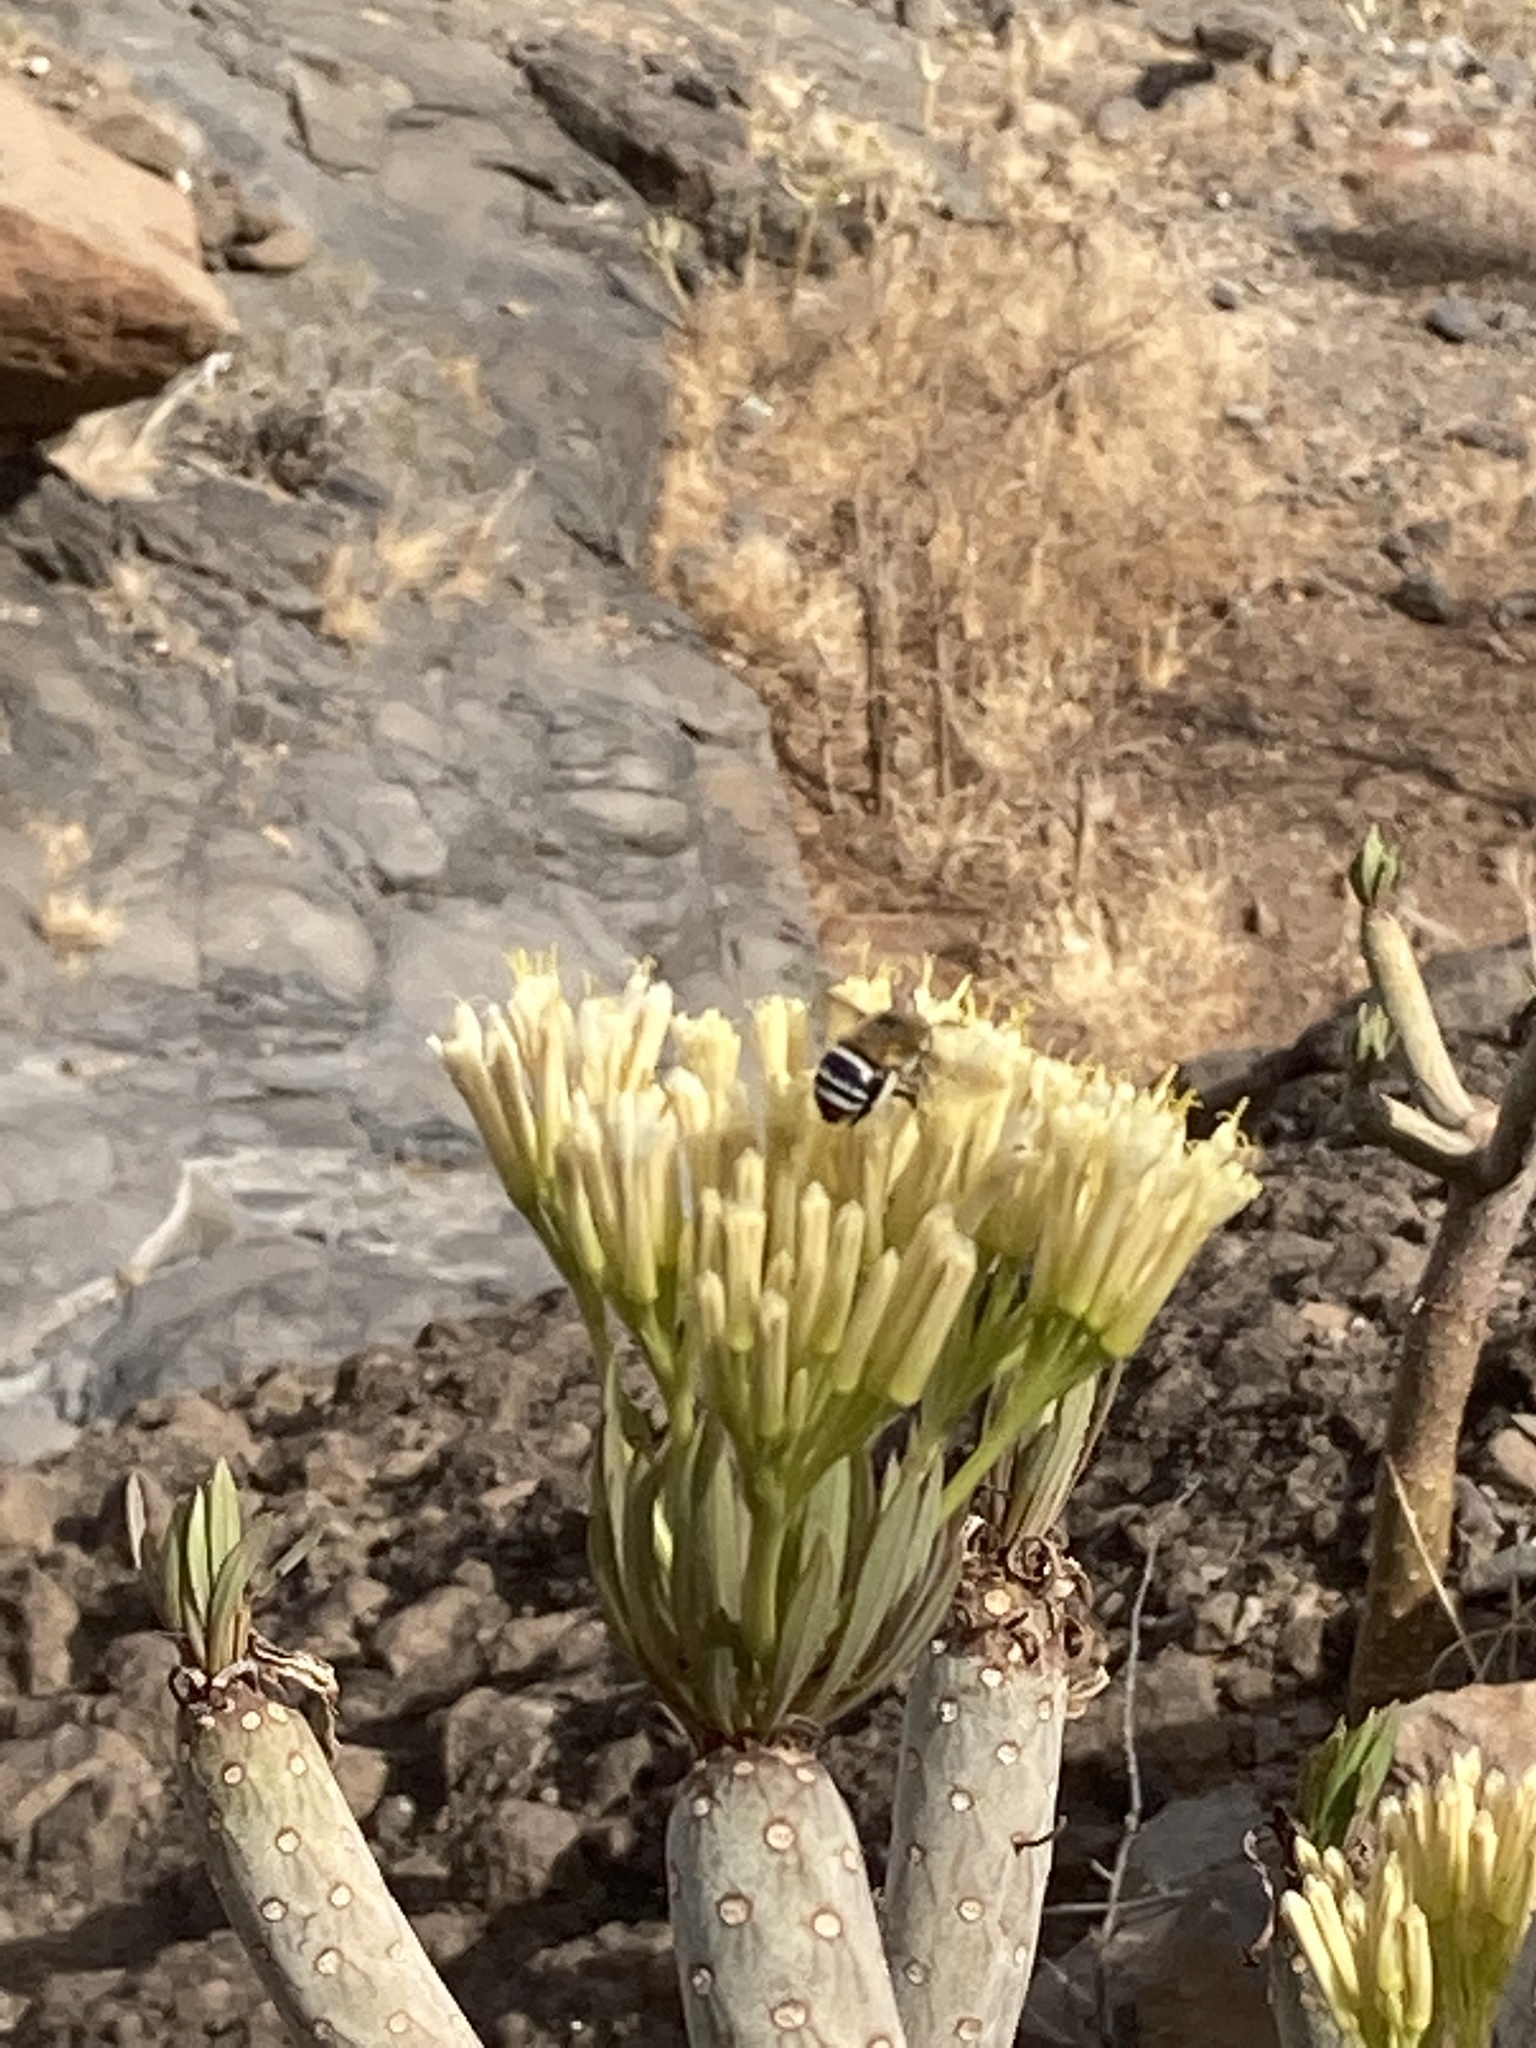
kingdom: Animalia
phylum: Arthropoda
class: Insecta
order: Hymenoptera
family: Apidae
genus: Amegilla
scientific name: Amegilla quadrifasciata
